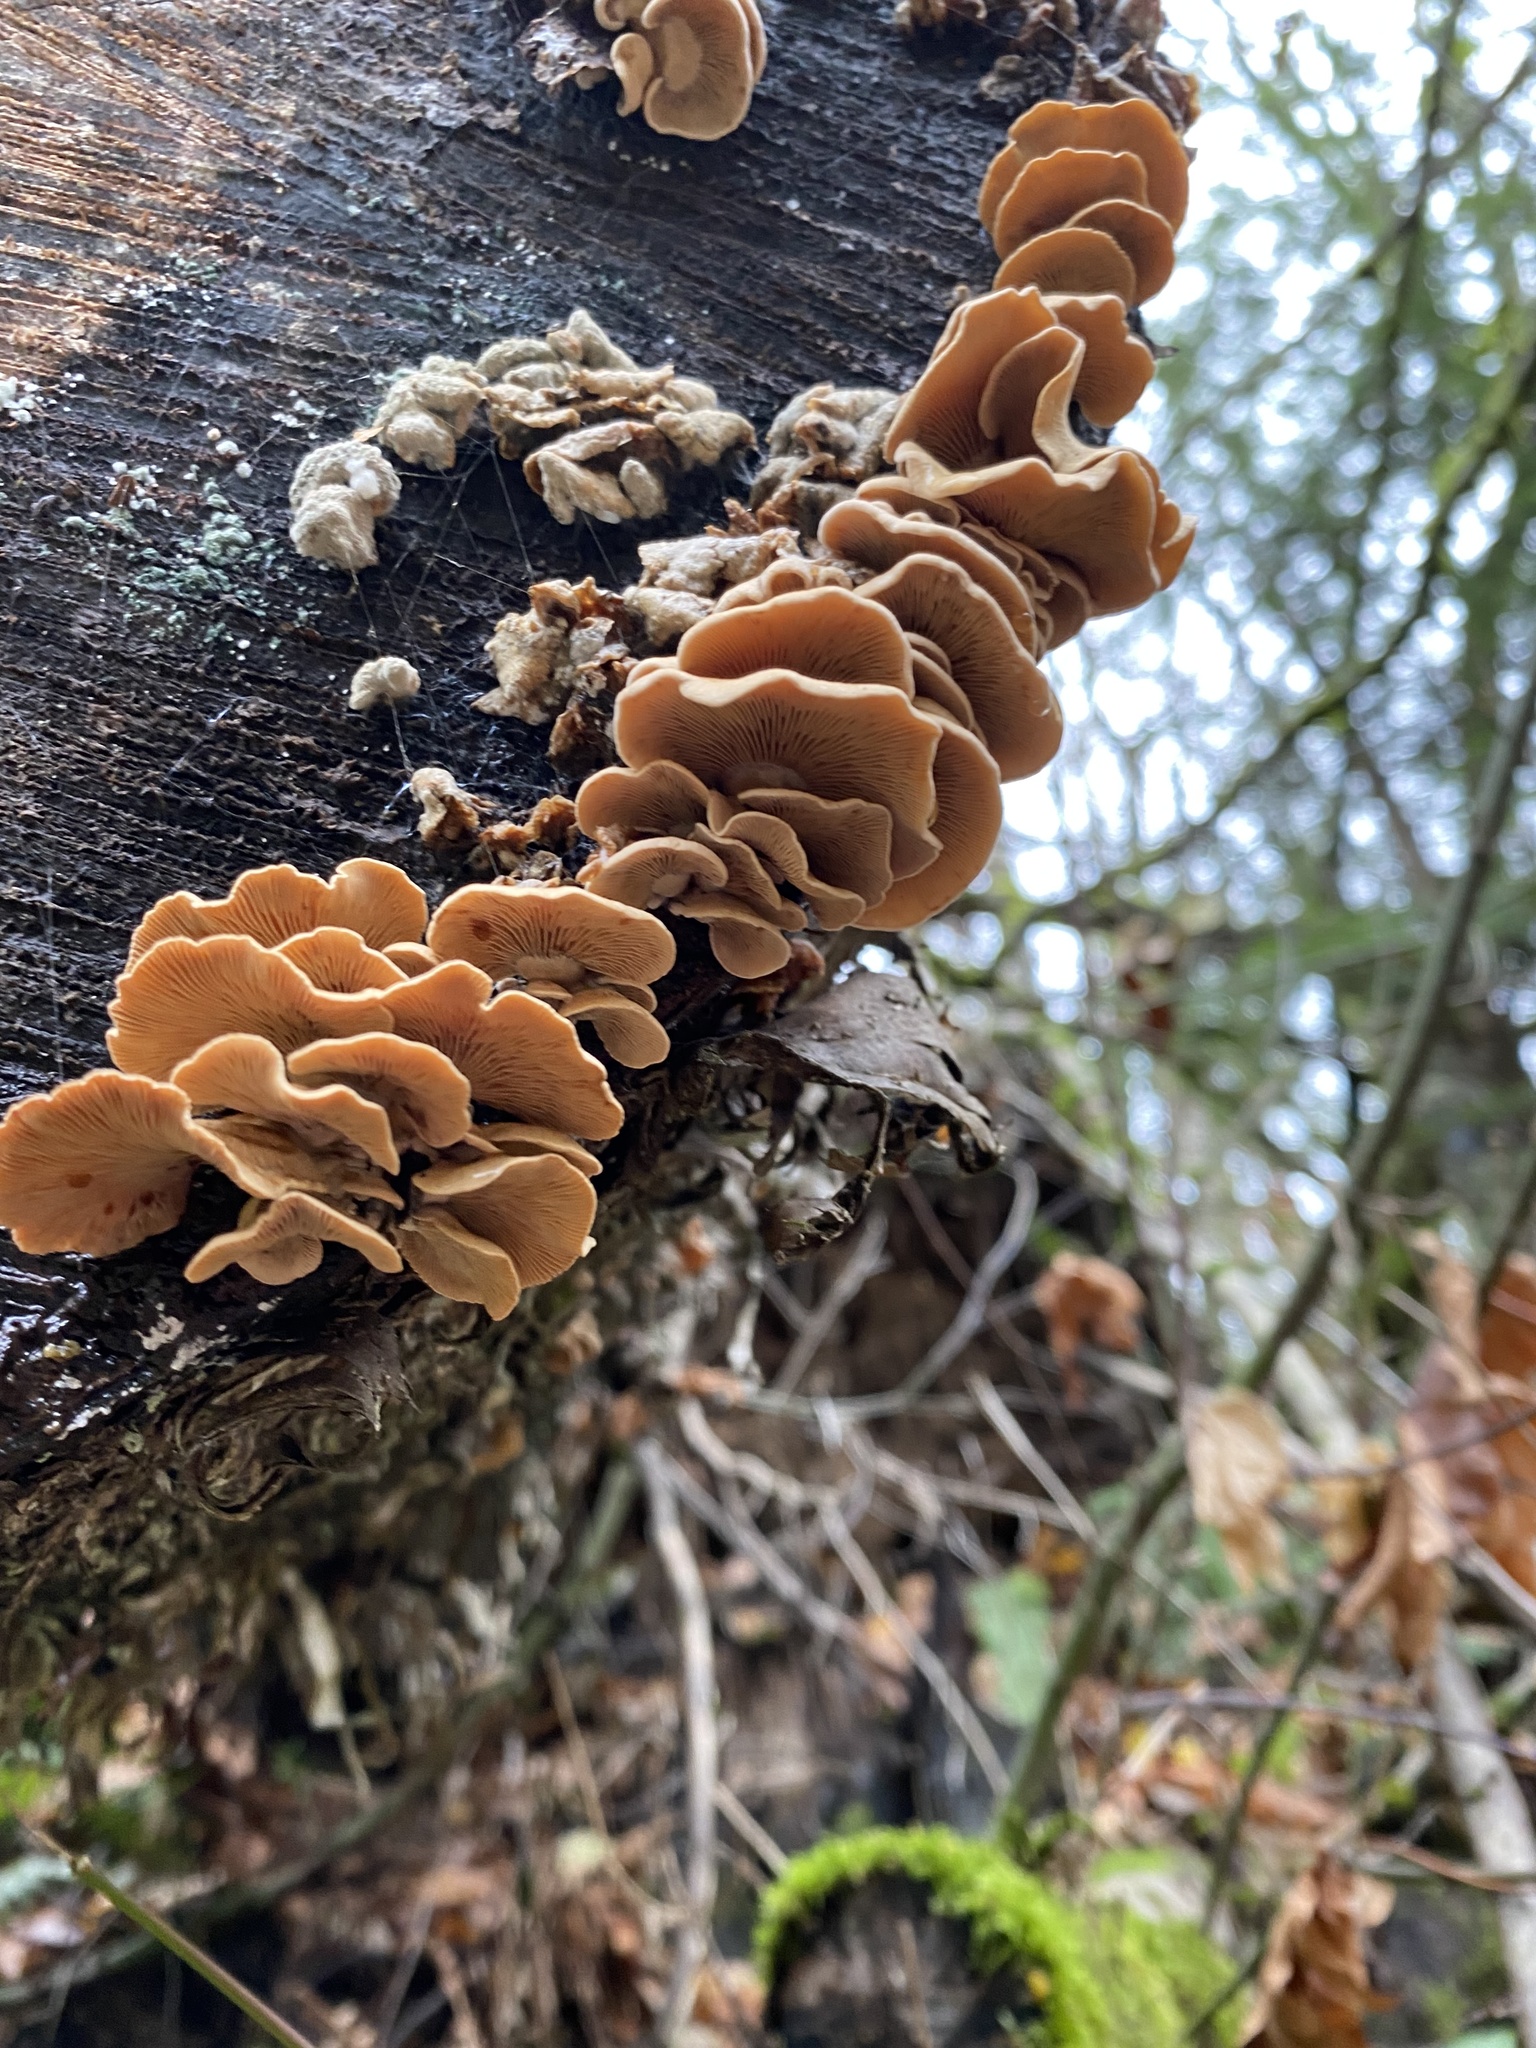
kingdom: Fungi
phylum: Basidiomycota
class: Agaricomycetes
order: Agaricales
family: Mycenaceae
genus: Panellus
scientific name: Panellus stipticus
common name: Bitter oysterling
